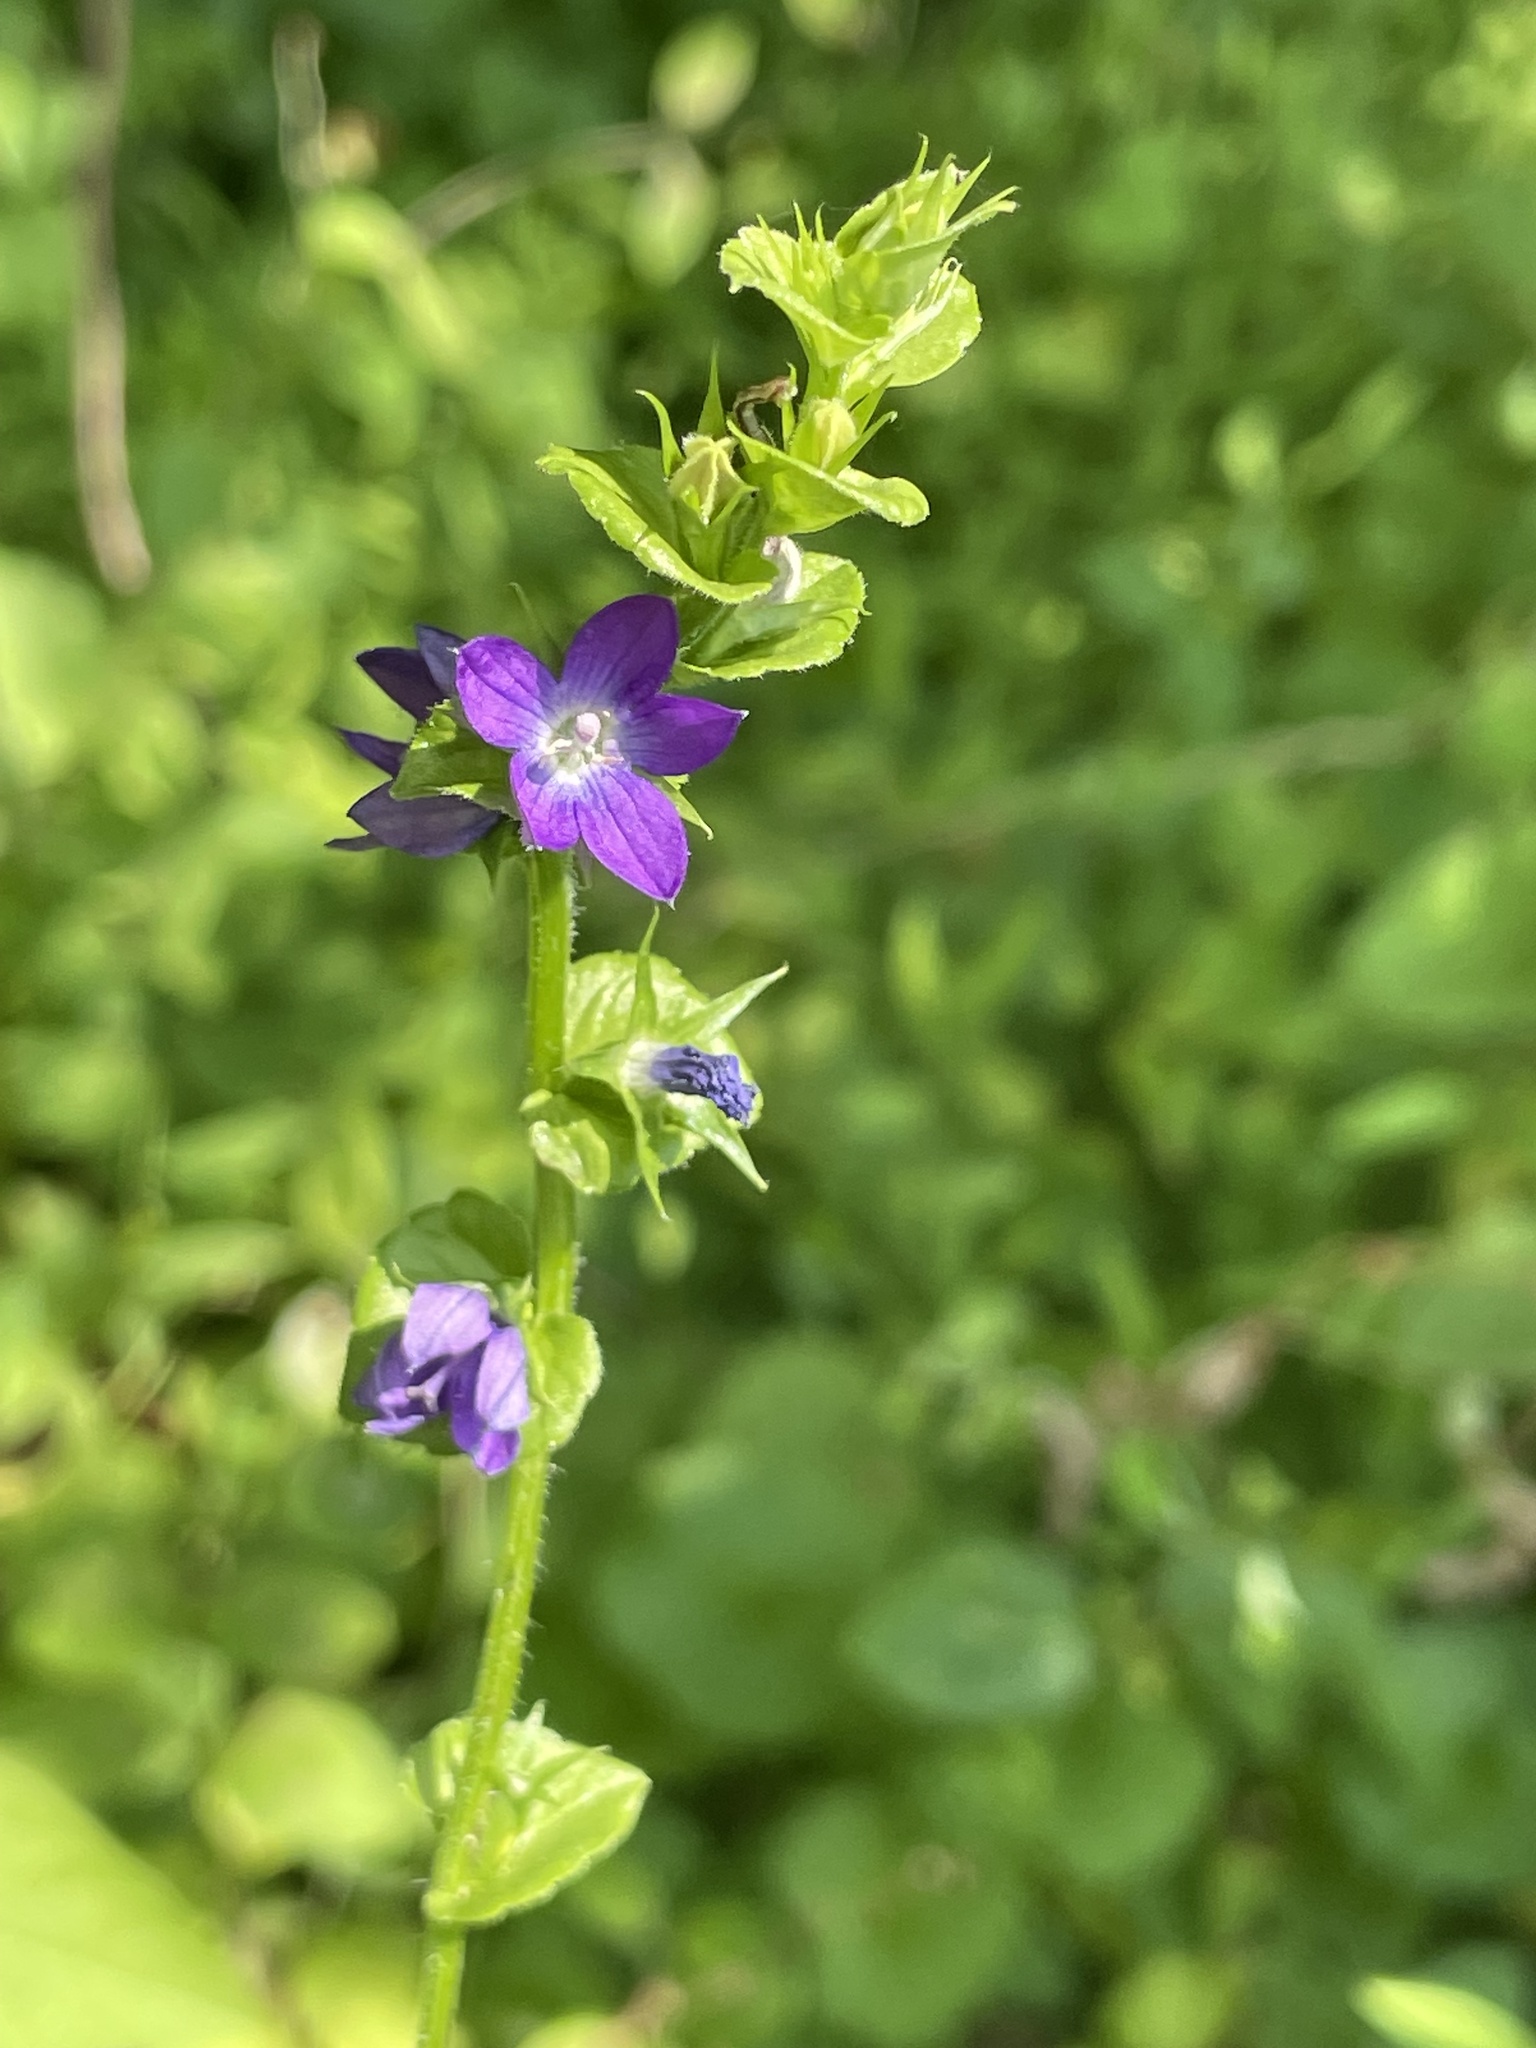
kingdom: Plantae
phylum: Tracheophyta
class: Magnoliopsida
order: Asterales
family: Campanulaceae
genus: Triodanis
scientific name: Triodanis perfoliata
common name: Clasping venus' looking-glass
